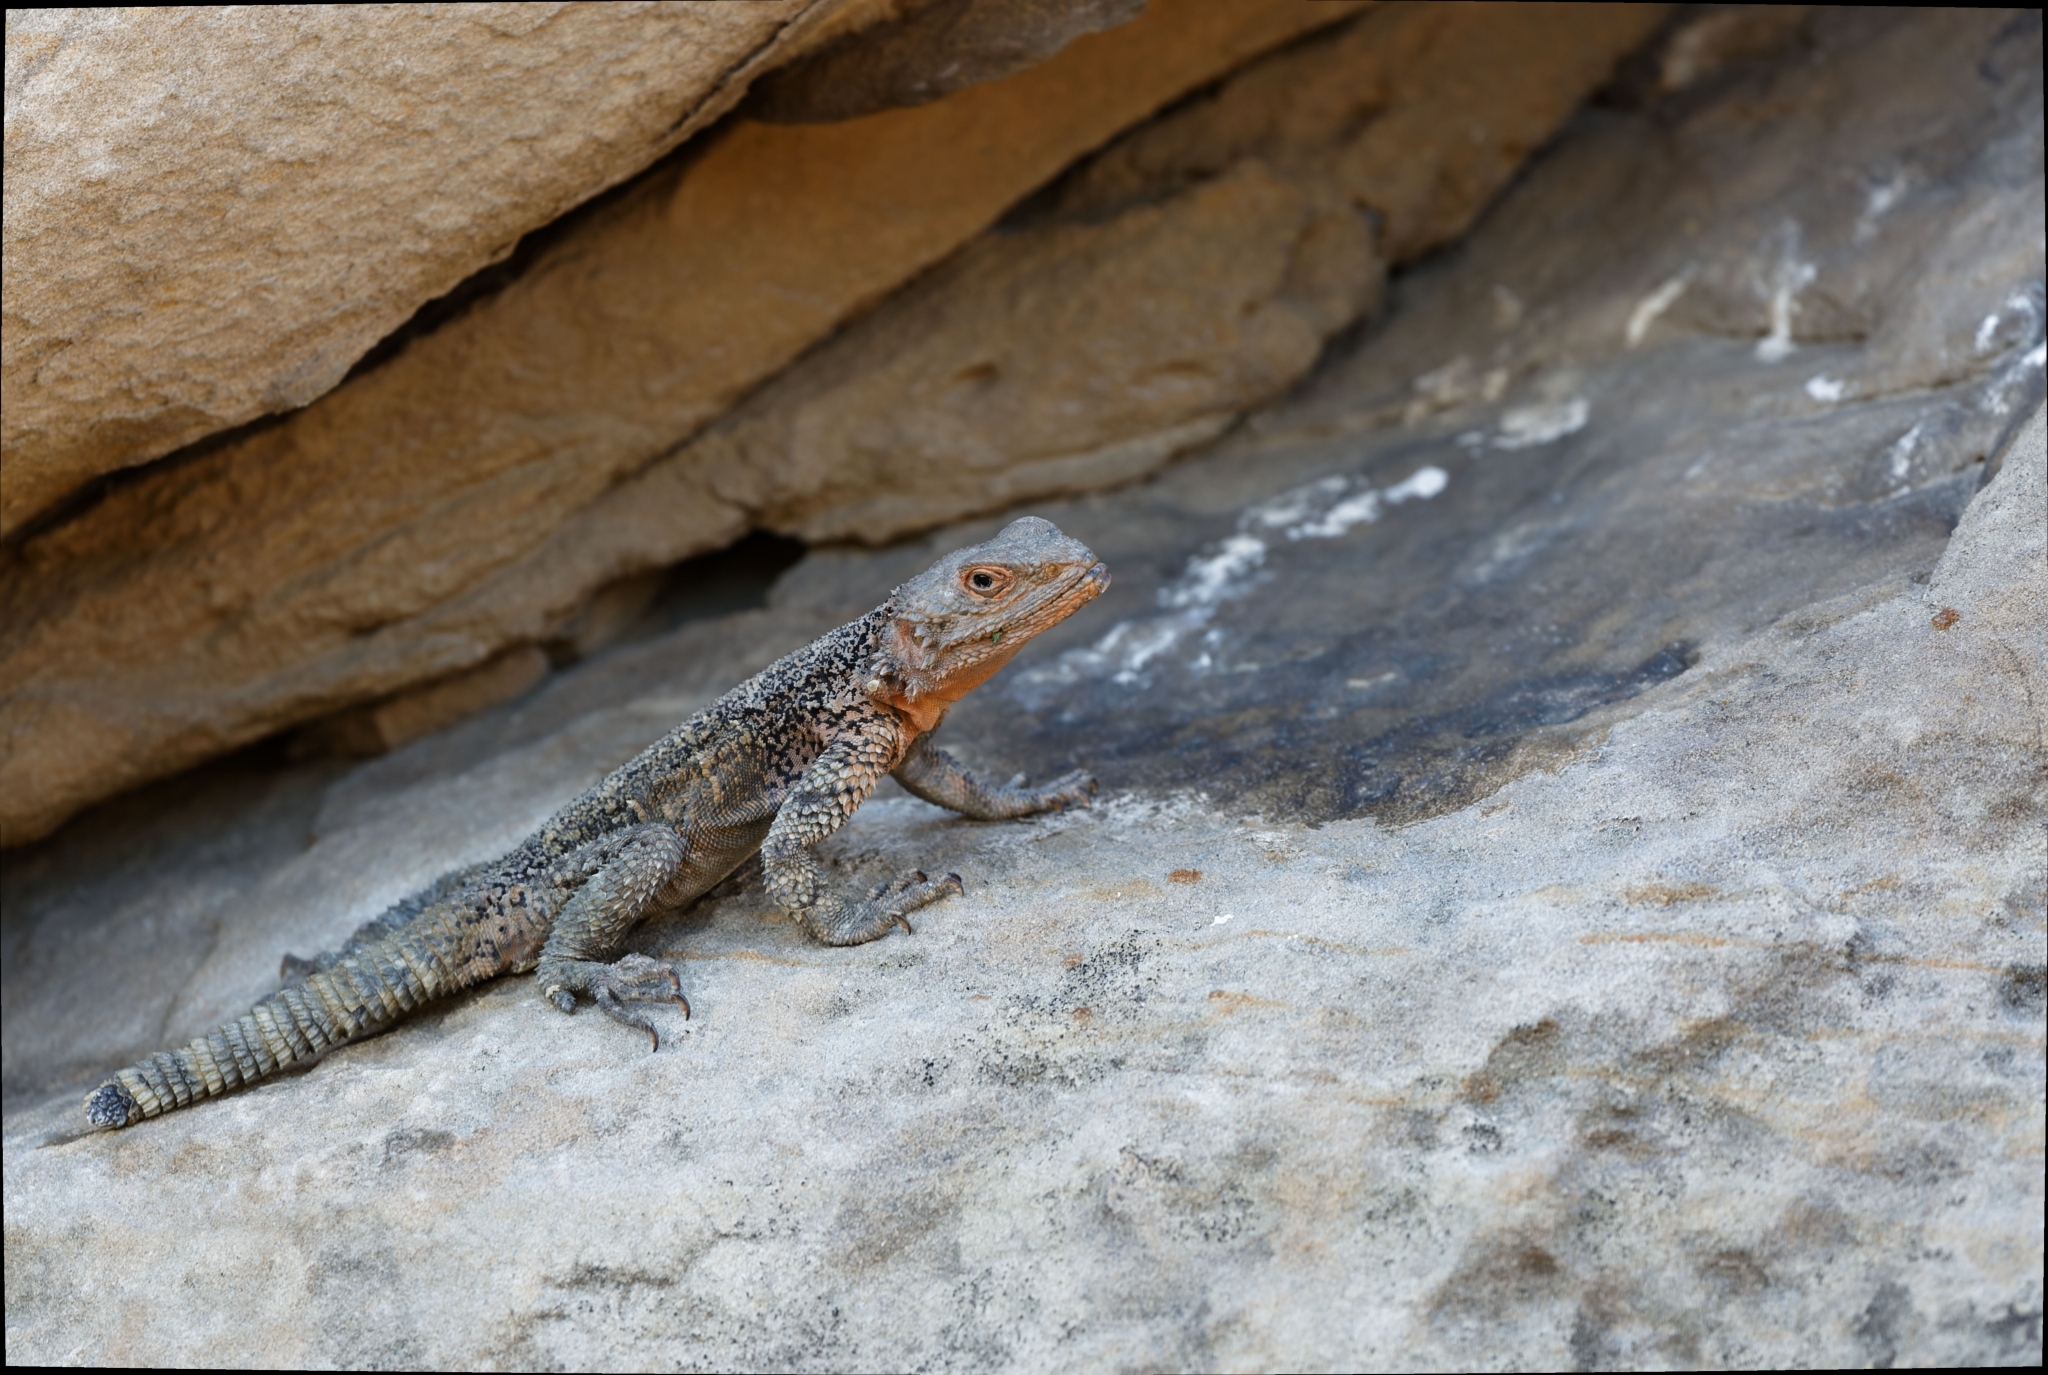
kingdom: Animalia
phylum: Chordata
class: Squamata
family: Agamidae
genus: Paralaudakia
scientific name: Paralaudakia caucasia
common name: Caucasian agama
